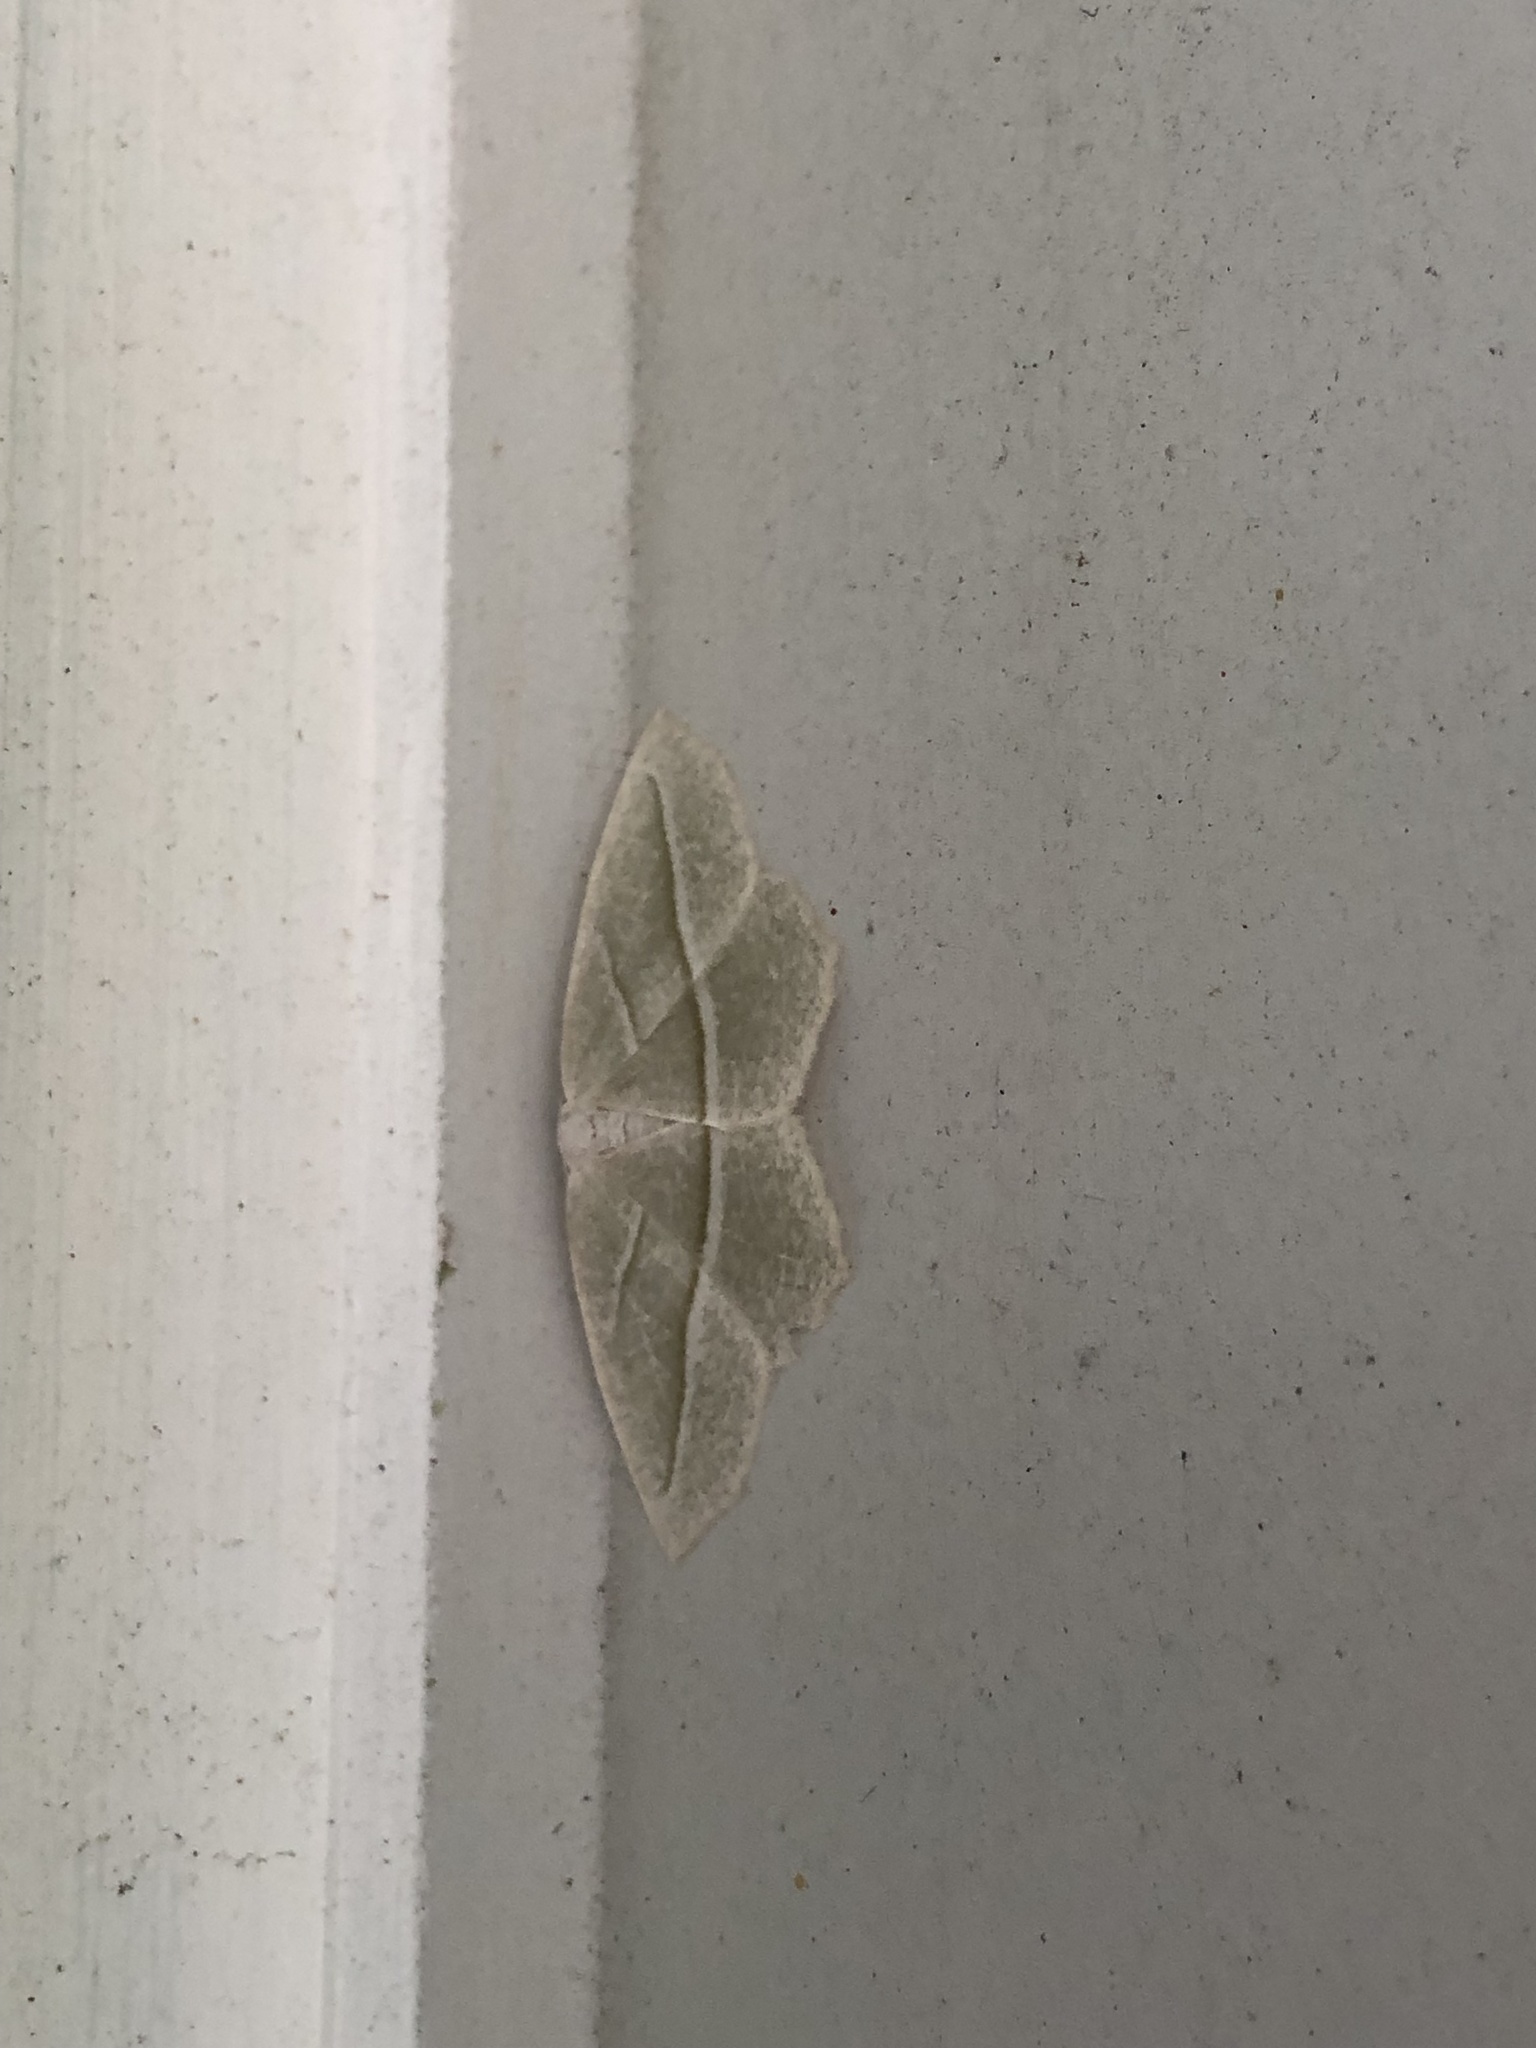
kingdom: Animalia
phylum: Arthropoda
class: Insecta
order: Lepidoptera
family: Geometridae
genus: Campaea
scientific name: Campaea perlata
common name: Fringed looper
